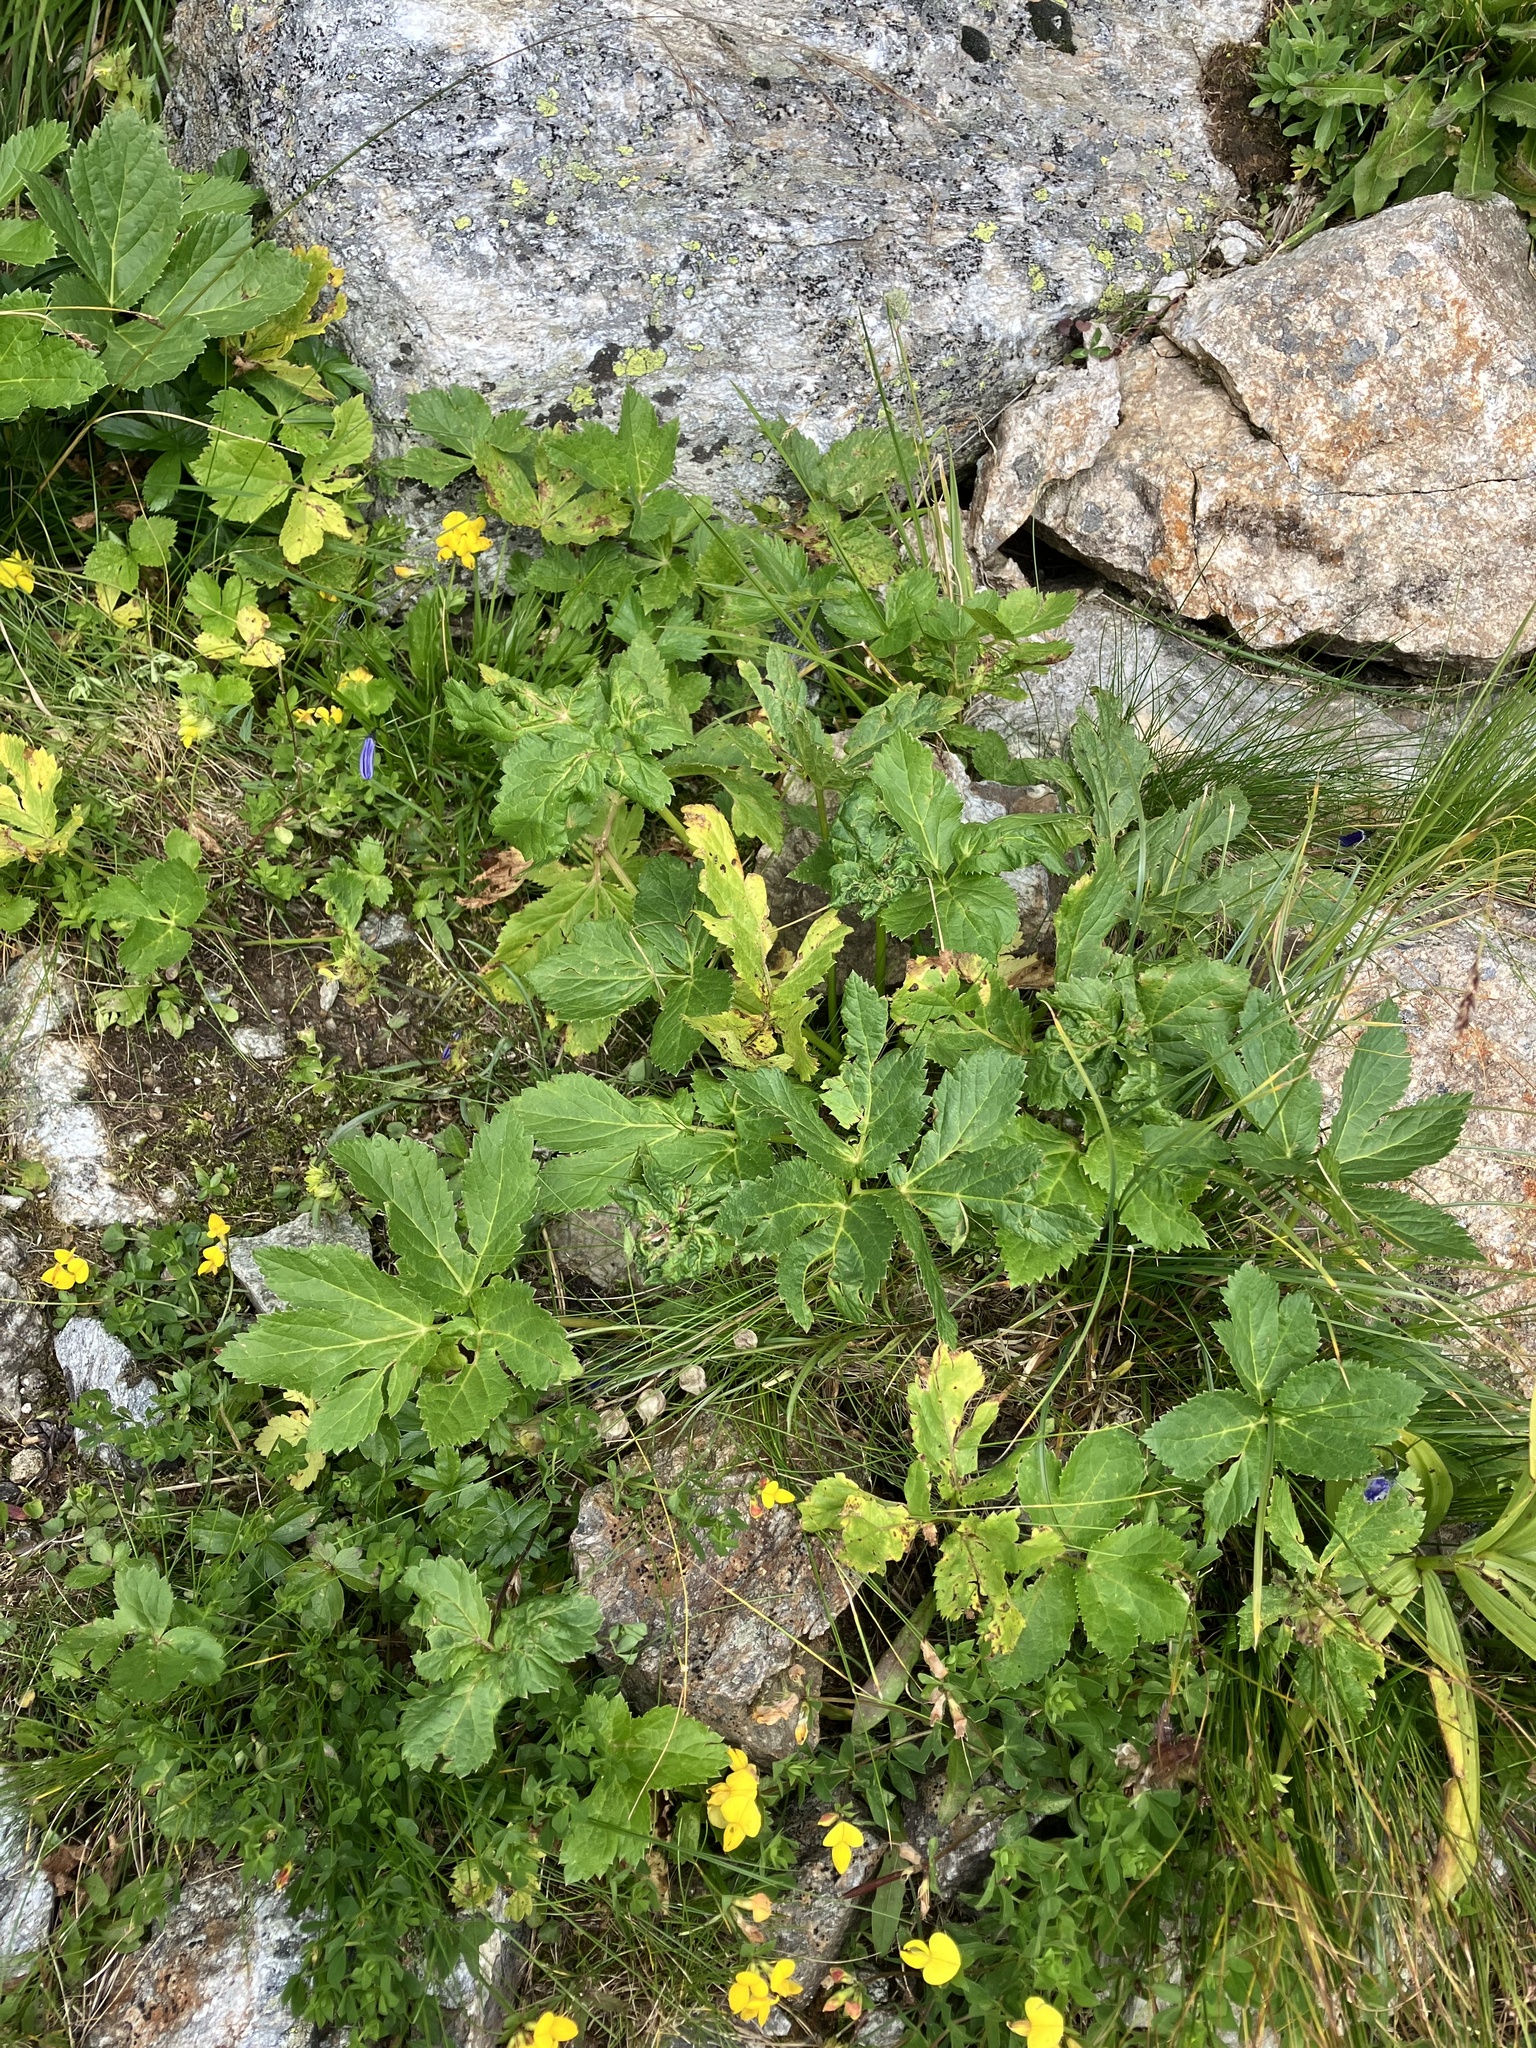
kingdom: Plantae
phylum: Tracheophyta
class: Magnoliopsida
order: Apiales
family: Apiaceae
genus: Imperatoria
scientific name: Imperatoria ostruthium
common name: Masterwort
